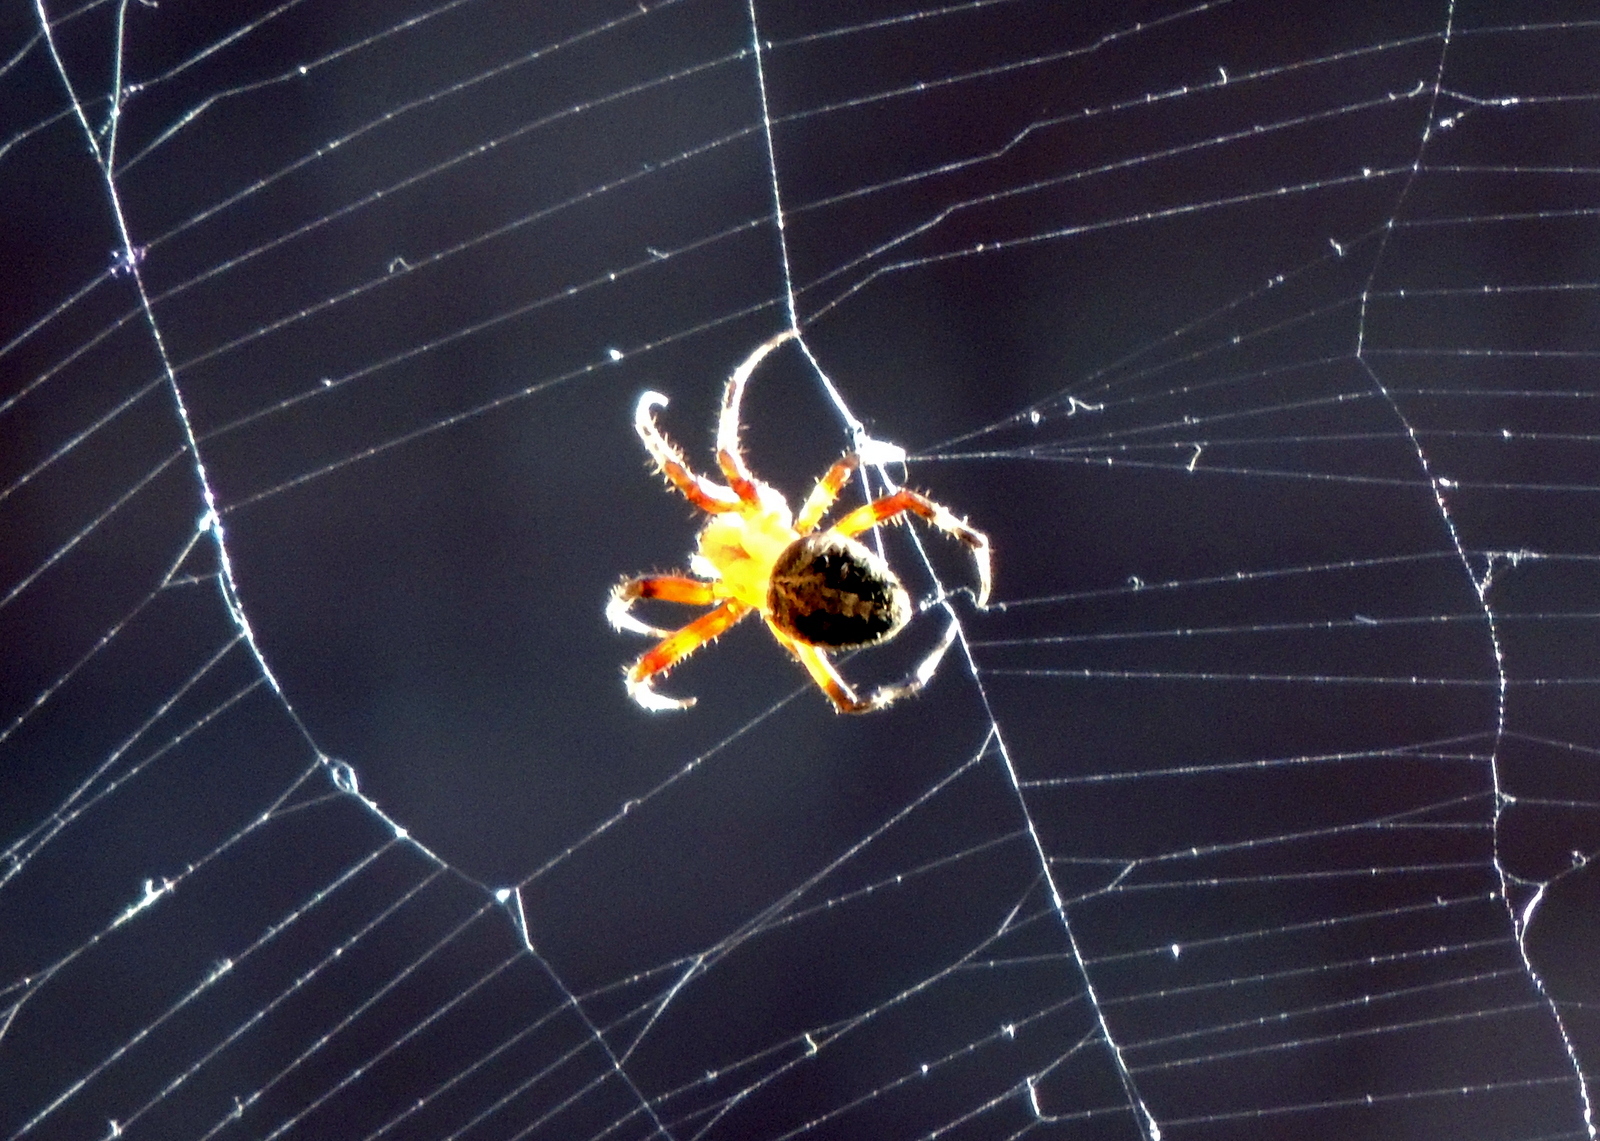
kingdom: Animalia
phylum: Arthropoda
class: Arachnida
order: Araneae
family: Araneidae
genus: Neoscona
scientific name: Neoscona oaxacensis
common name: Orb weavers
